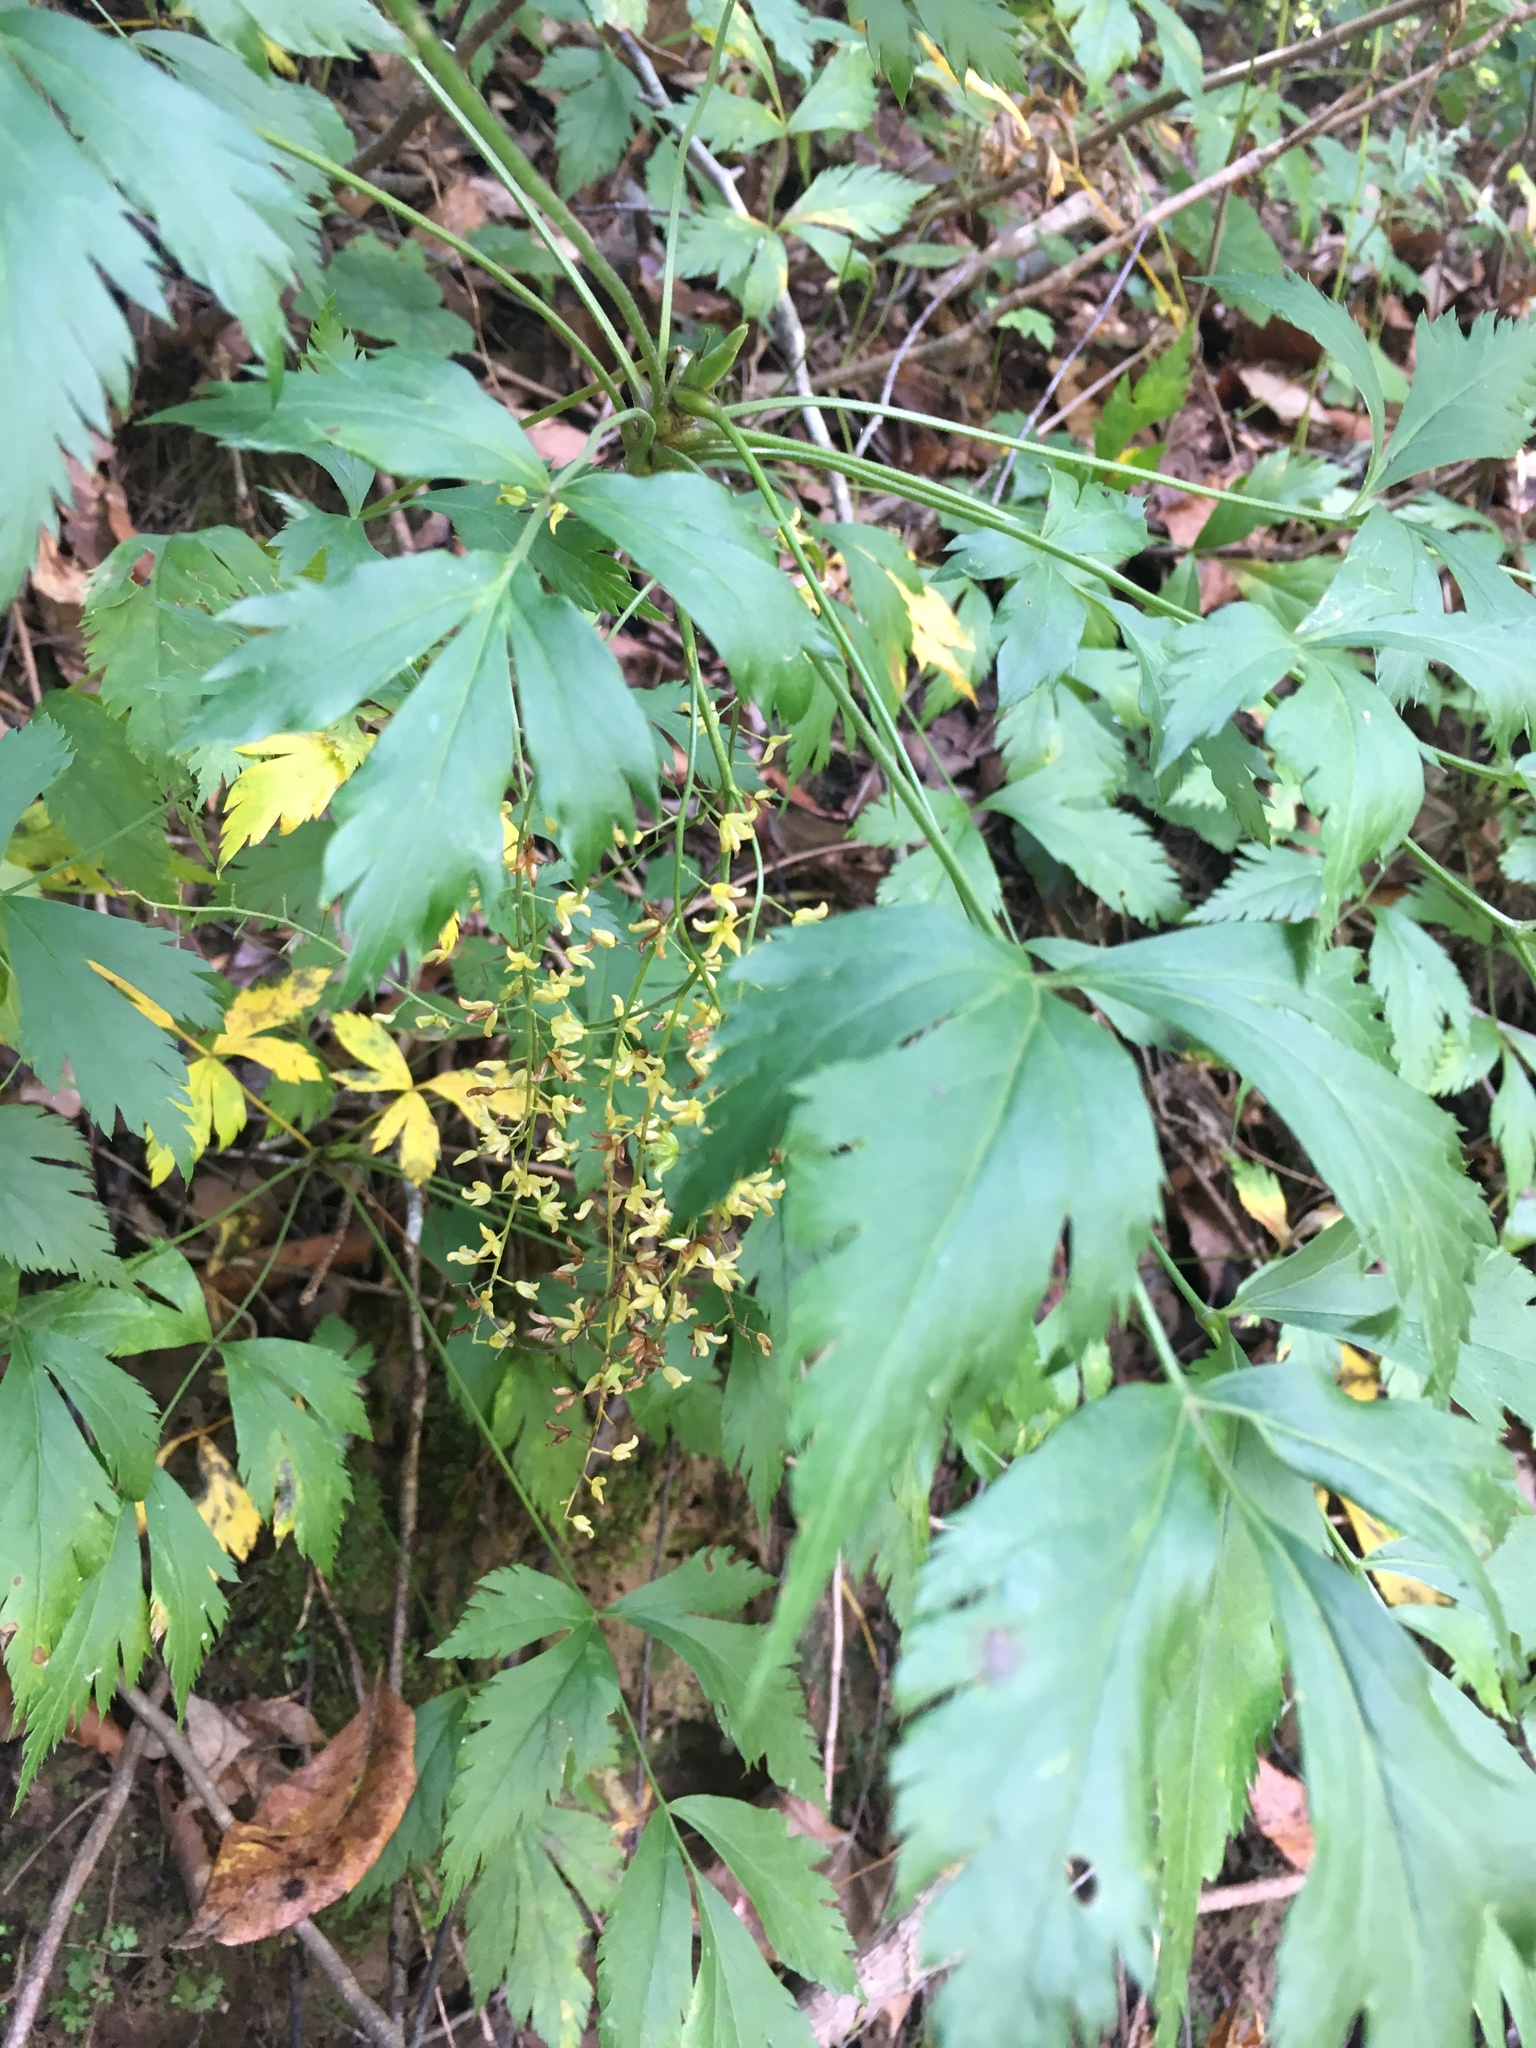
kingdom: Plantae
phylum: Tracheophyta
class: Magnoliopsida
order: Ranunculales
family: Ranunculaceae
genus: Xanthorhiza
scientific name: Xanthorhiza simplicissima
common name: Yellowroot
